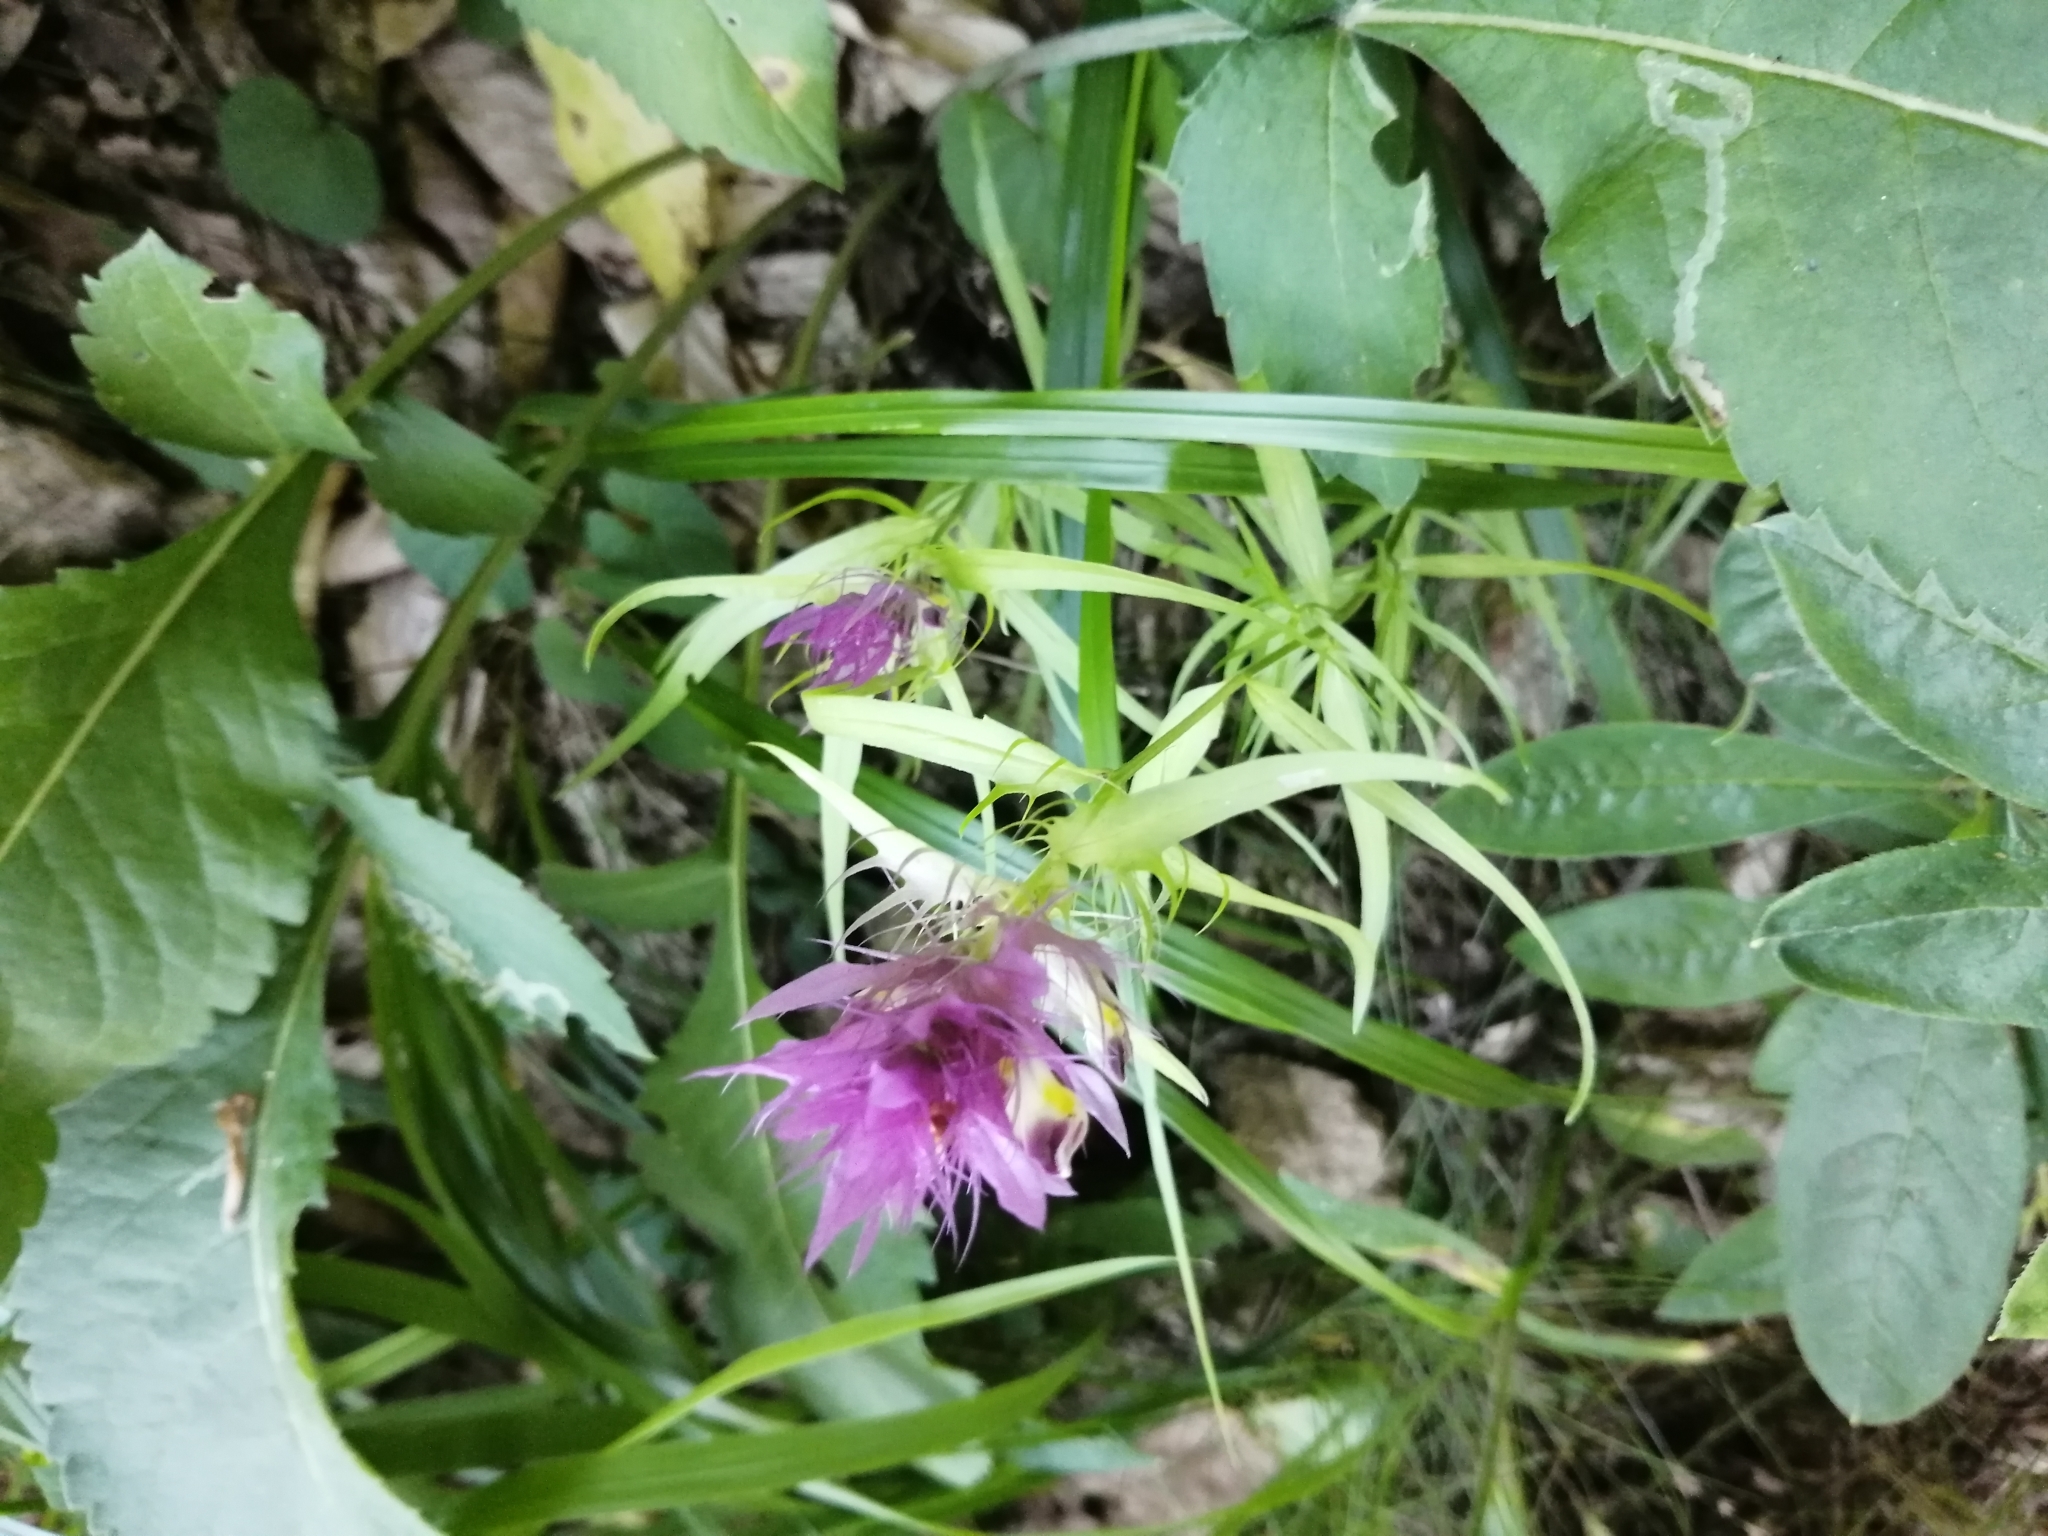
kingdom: Plantae
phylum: Tracheophyta
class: Magnoliopsida
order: Lamiales
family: Orobanchaceae
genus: Melampyrum
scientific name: Melampyrum arvense
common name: Field cow-wheat
